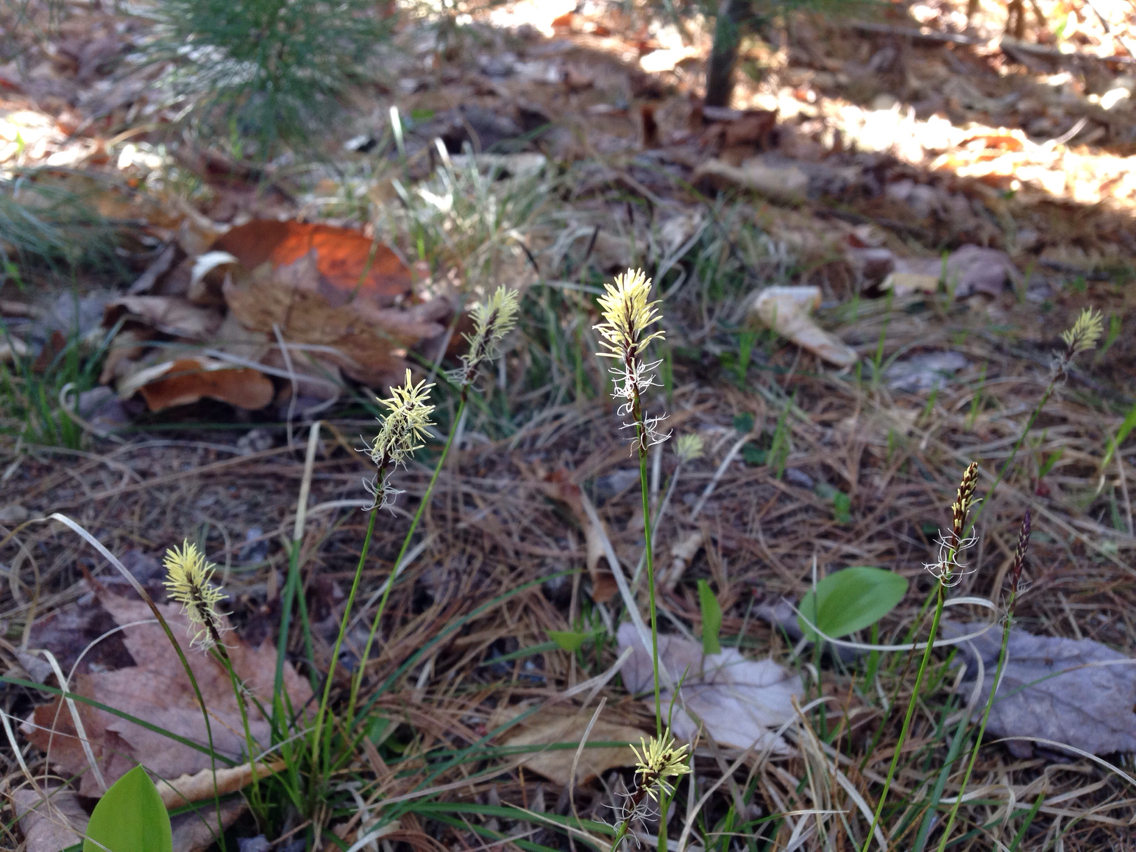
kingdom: Plantae
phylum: Tracheophyta
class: Liliopsida
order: Poales
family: Cyperaceae
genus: Carex
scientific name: Carex pensylvanica
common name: Common oak sedge
